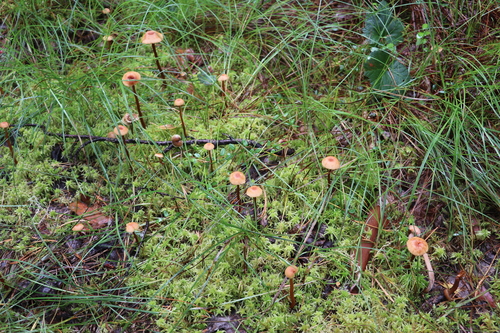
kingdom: Fungi
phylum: Basidiomycota
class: Agaricomycetes
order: Agaricales
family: Hydnangiaceae
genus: Laccaria
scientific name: Laccaria laccata
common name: Deceiver
